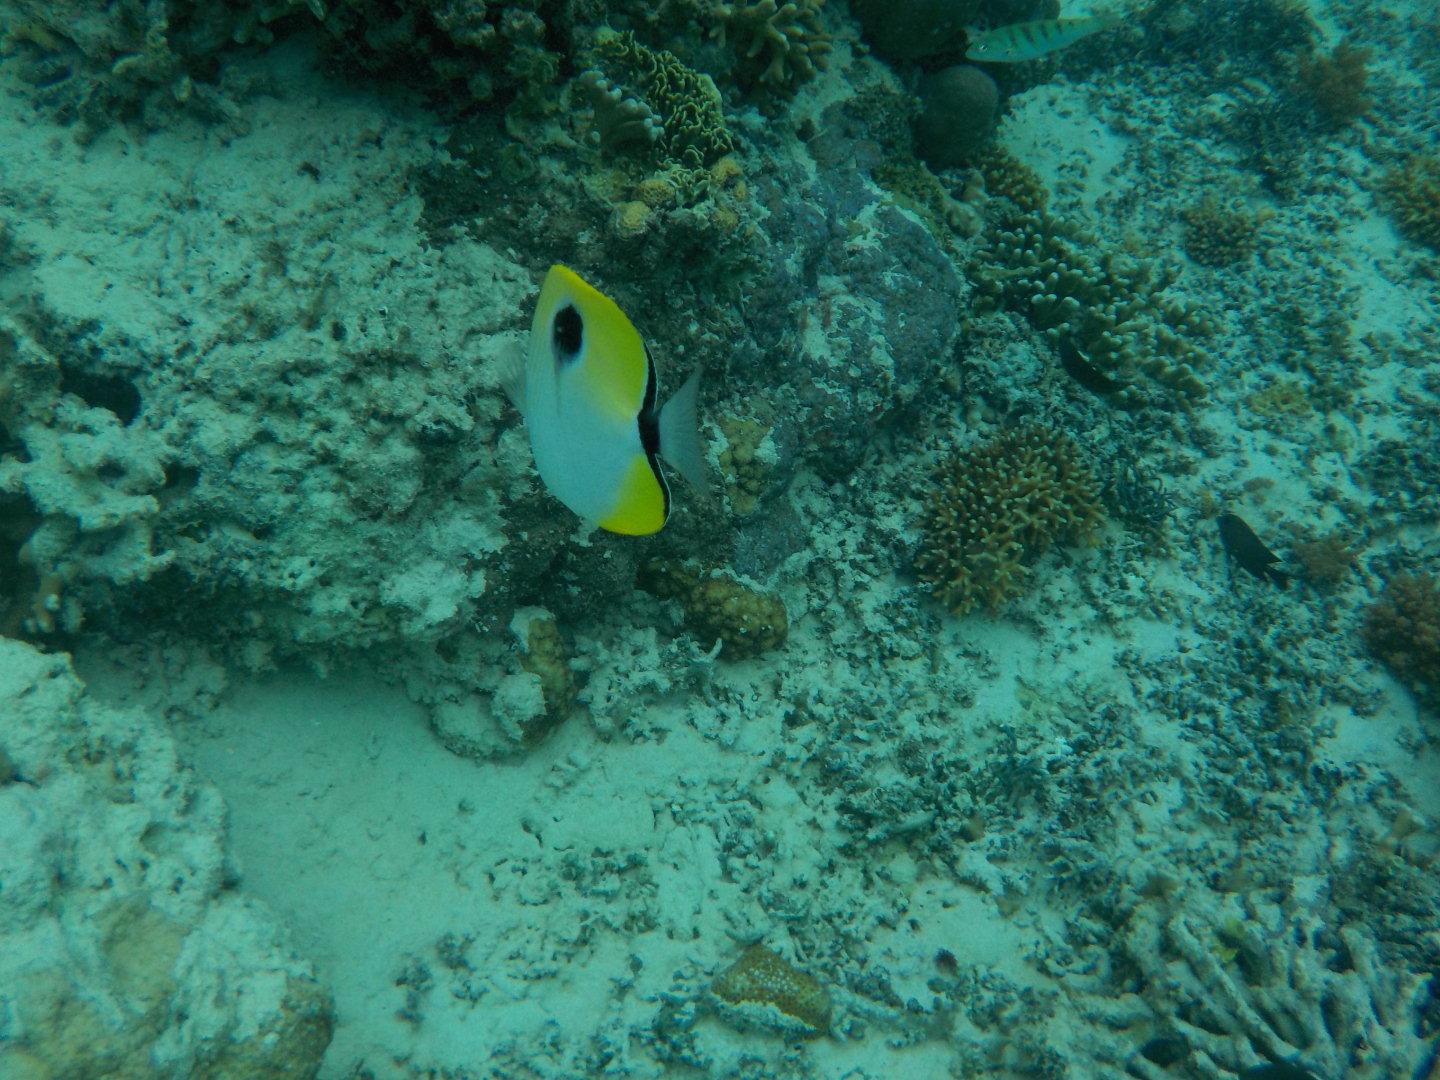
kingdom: Animalia
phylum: Chordata
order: Perciformes
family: Chaetodontidae
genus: Chaetodon
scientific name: Chaetodon unimaculatus
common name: Teardrop butterflyfish
